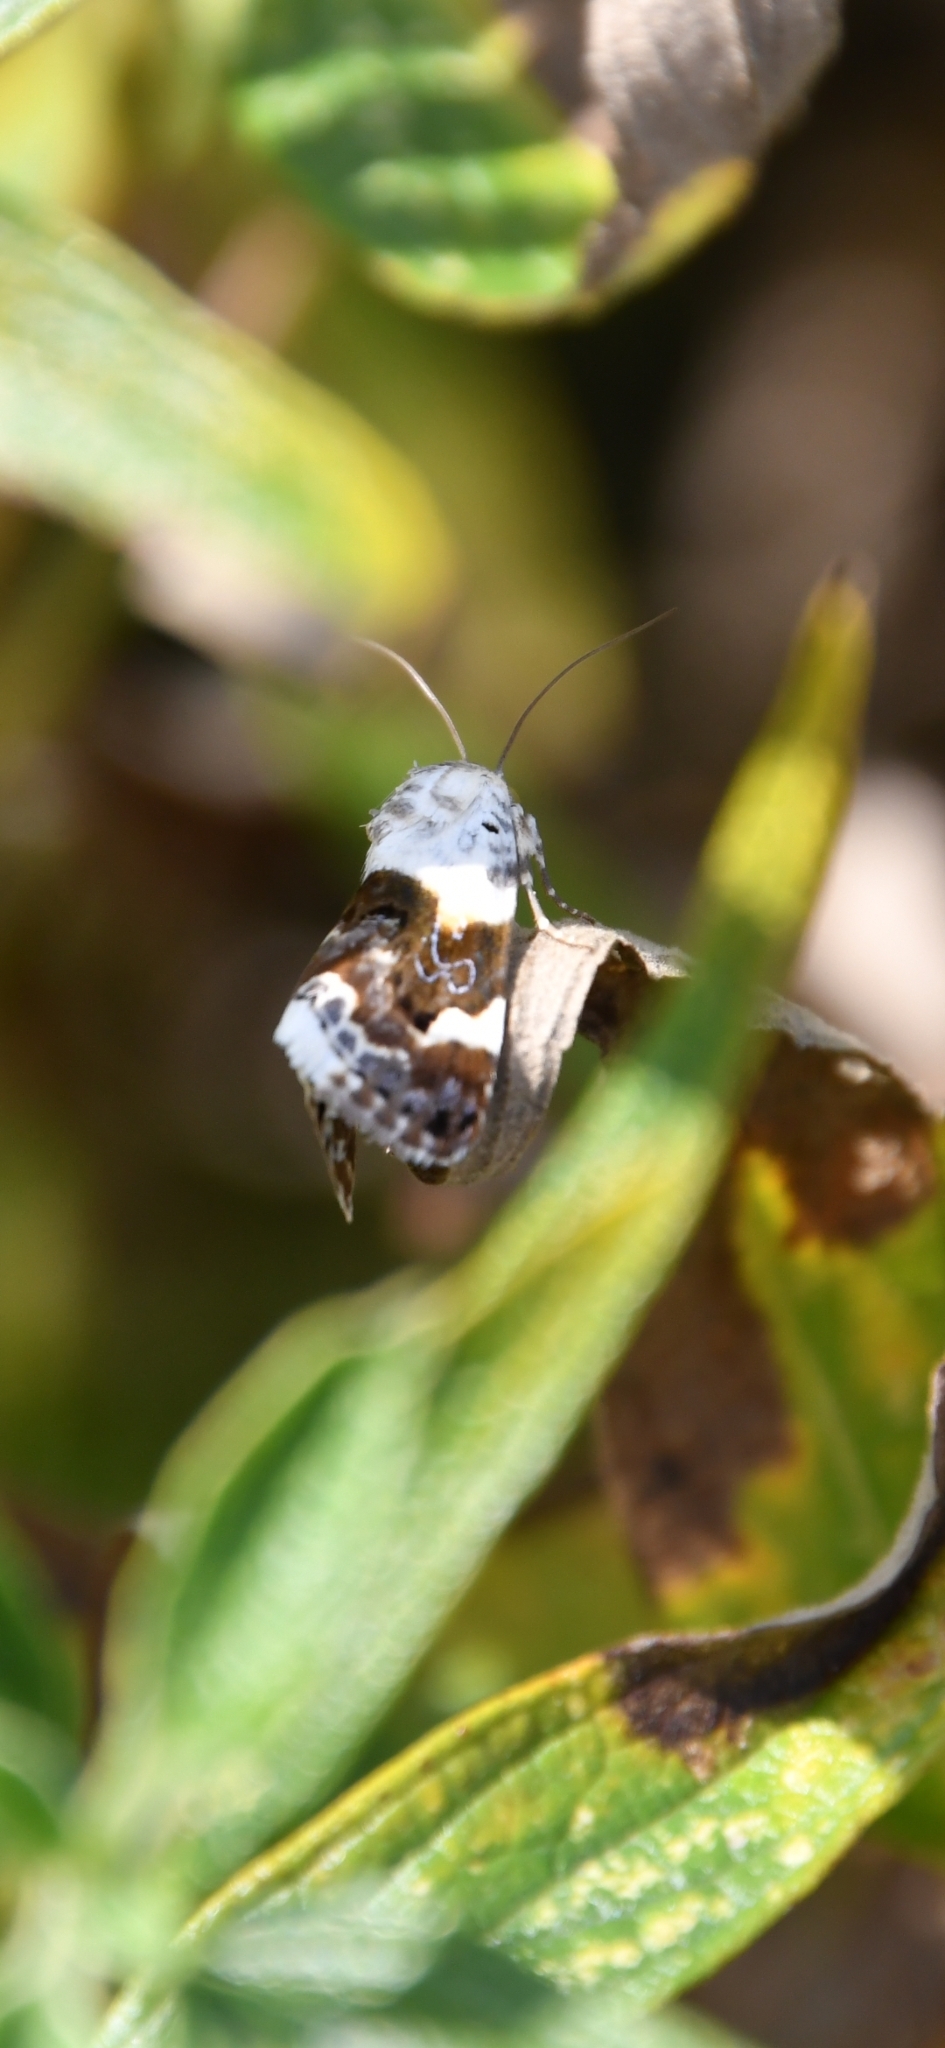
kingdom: Animalia
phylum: Arthropoda
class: Insecta
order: Lepidoptera
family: Noctuidae
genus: Acontia
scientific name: Acontia lucida
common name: Pale shoulder
